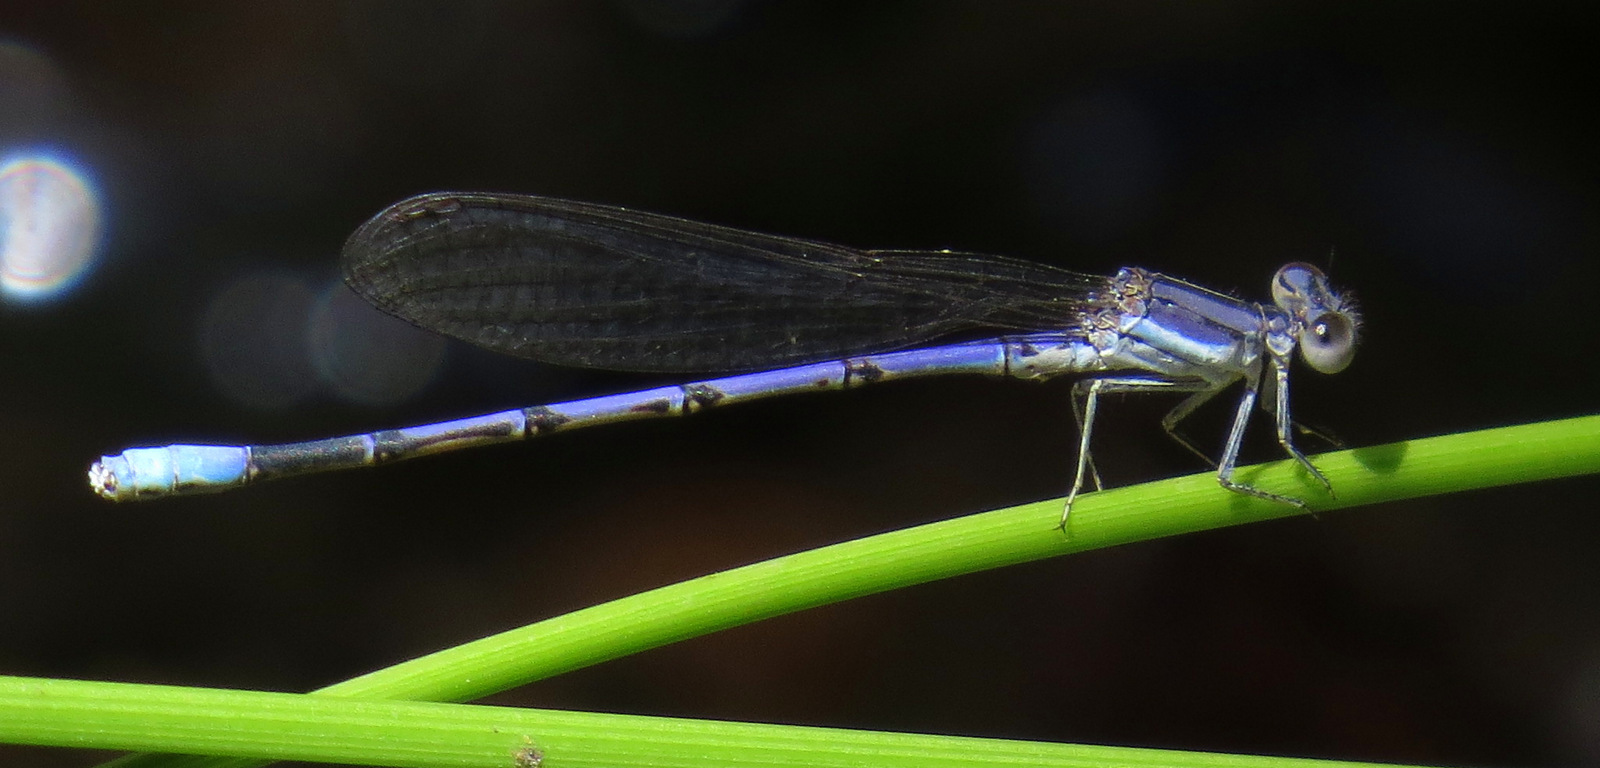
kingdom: Animalia
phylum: Arthropoda
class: Insecta
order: Odonata
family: Coenagrionidae
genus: Argia
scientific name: Argia hinei
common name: Lavender dancer
